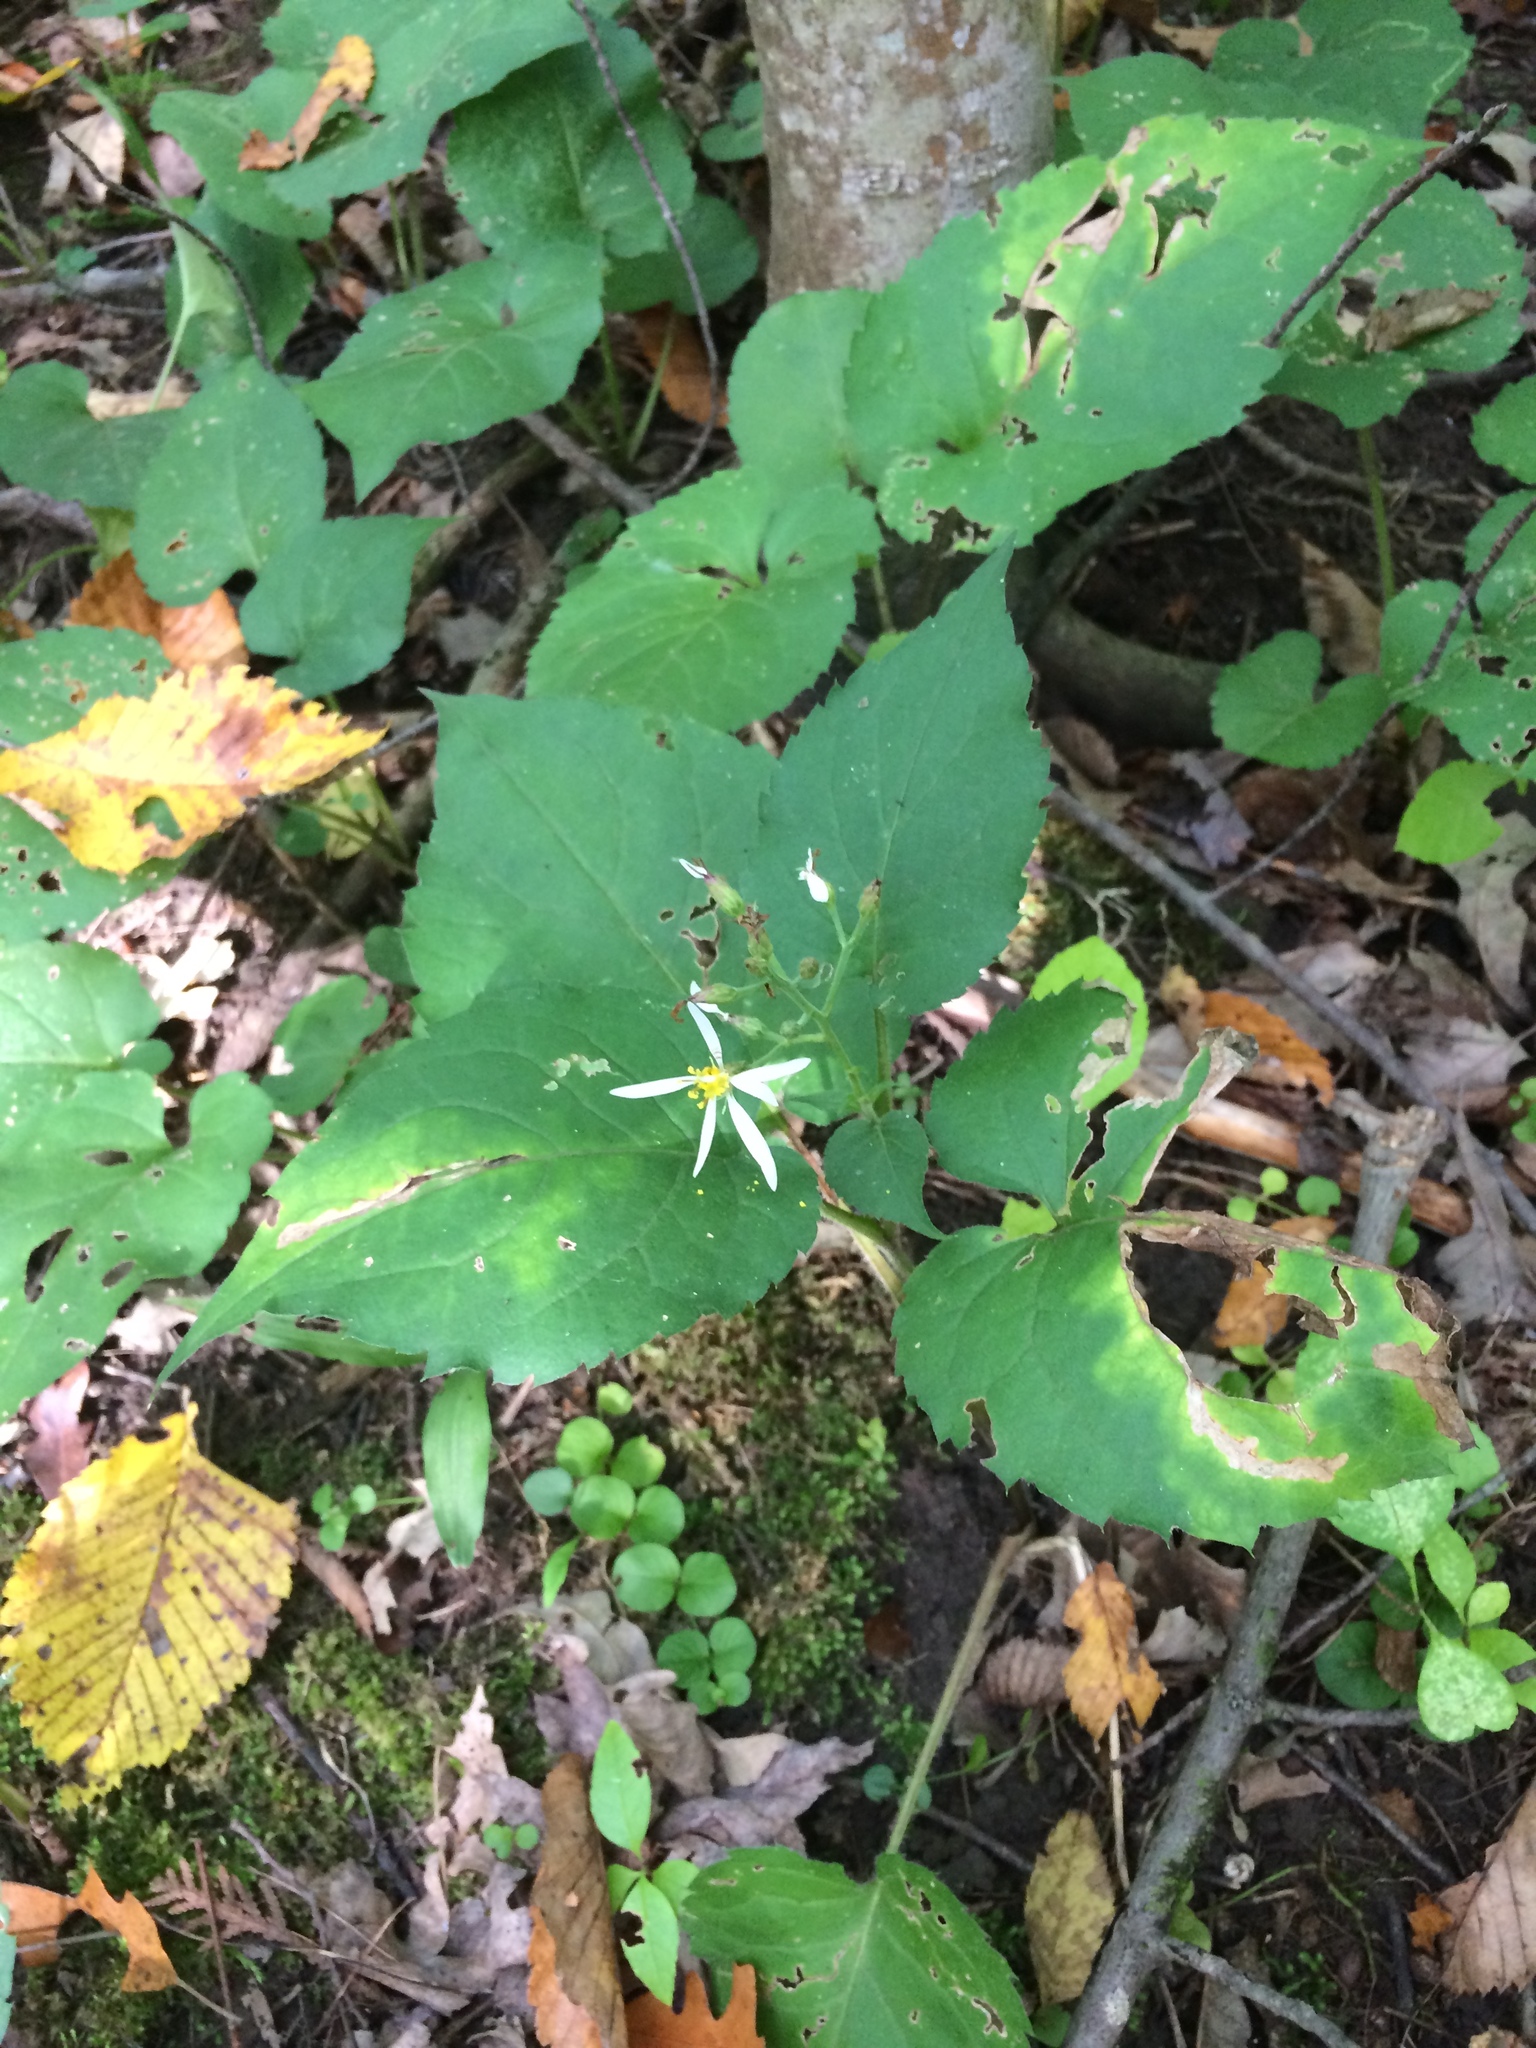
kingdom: Plantae
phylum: Tracheophyta
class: Magnoliopsida
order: Asterales
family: Asteraceae
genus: Eurybia
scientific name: Eurybia macrophylla
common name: Big-leaved aster
